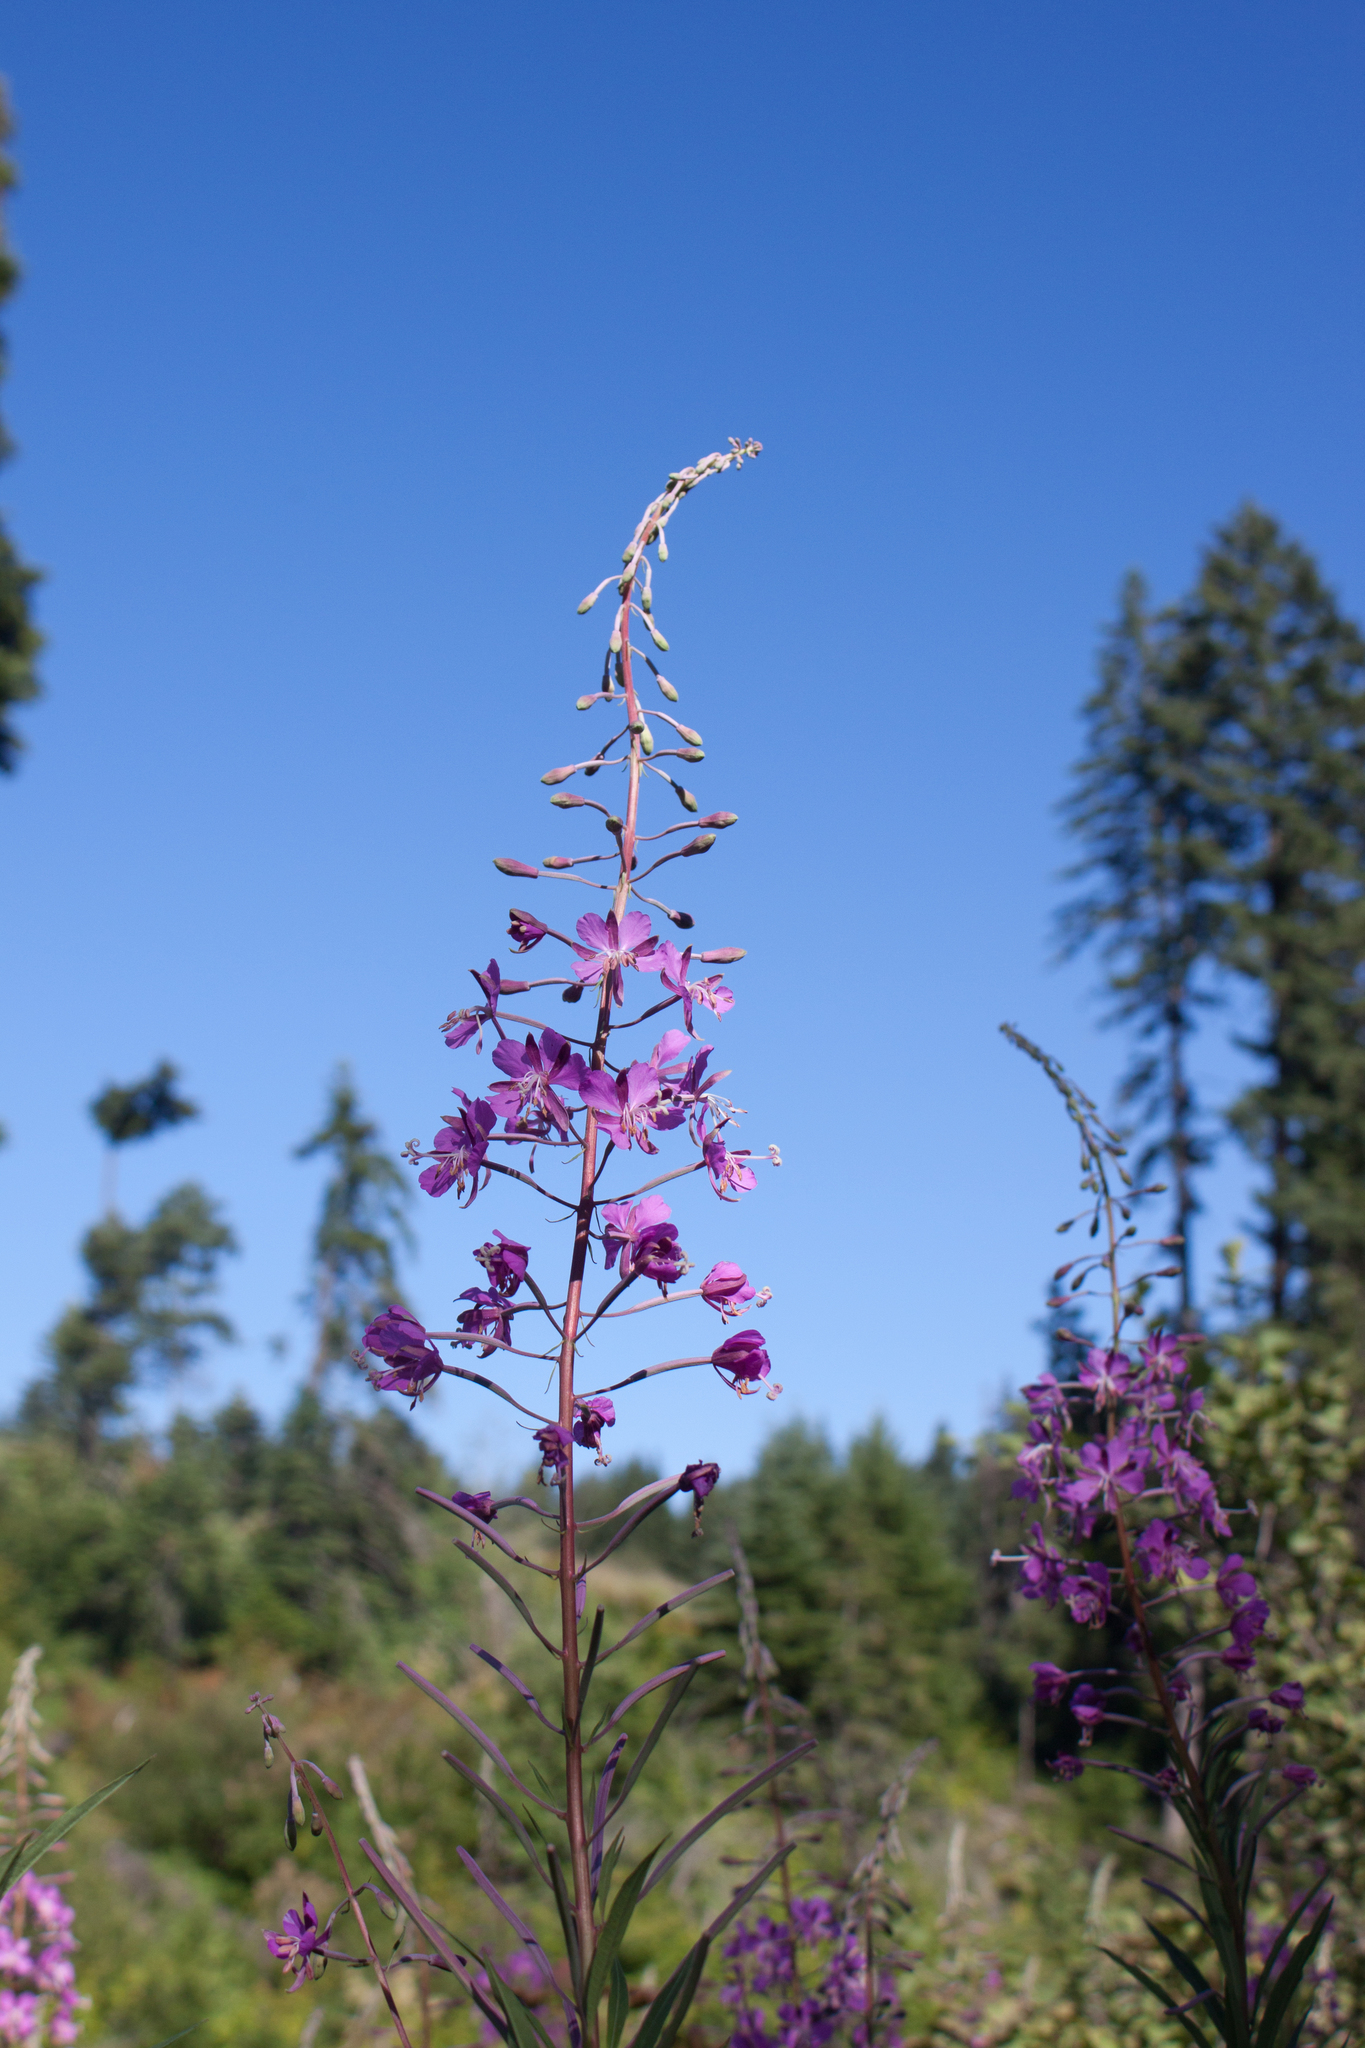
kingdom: Plantae
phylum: Tracheophyta
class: Magnoliopsida
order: Myrtales
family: Onagraceae
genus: Chamaenerion
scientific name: Chamaenerion angustifolium
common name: Fireweed
